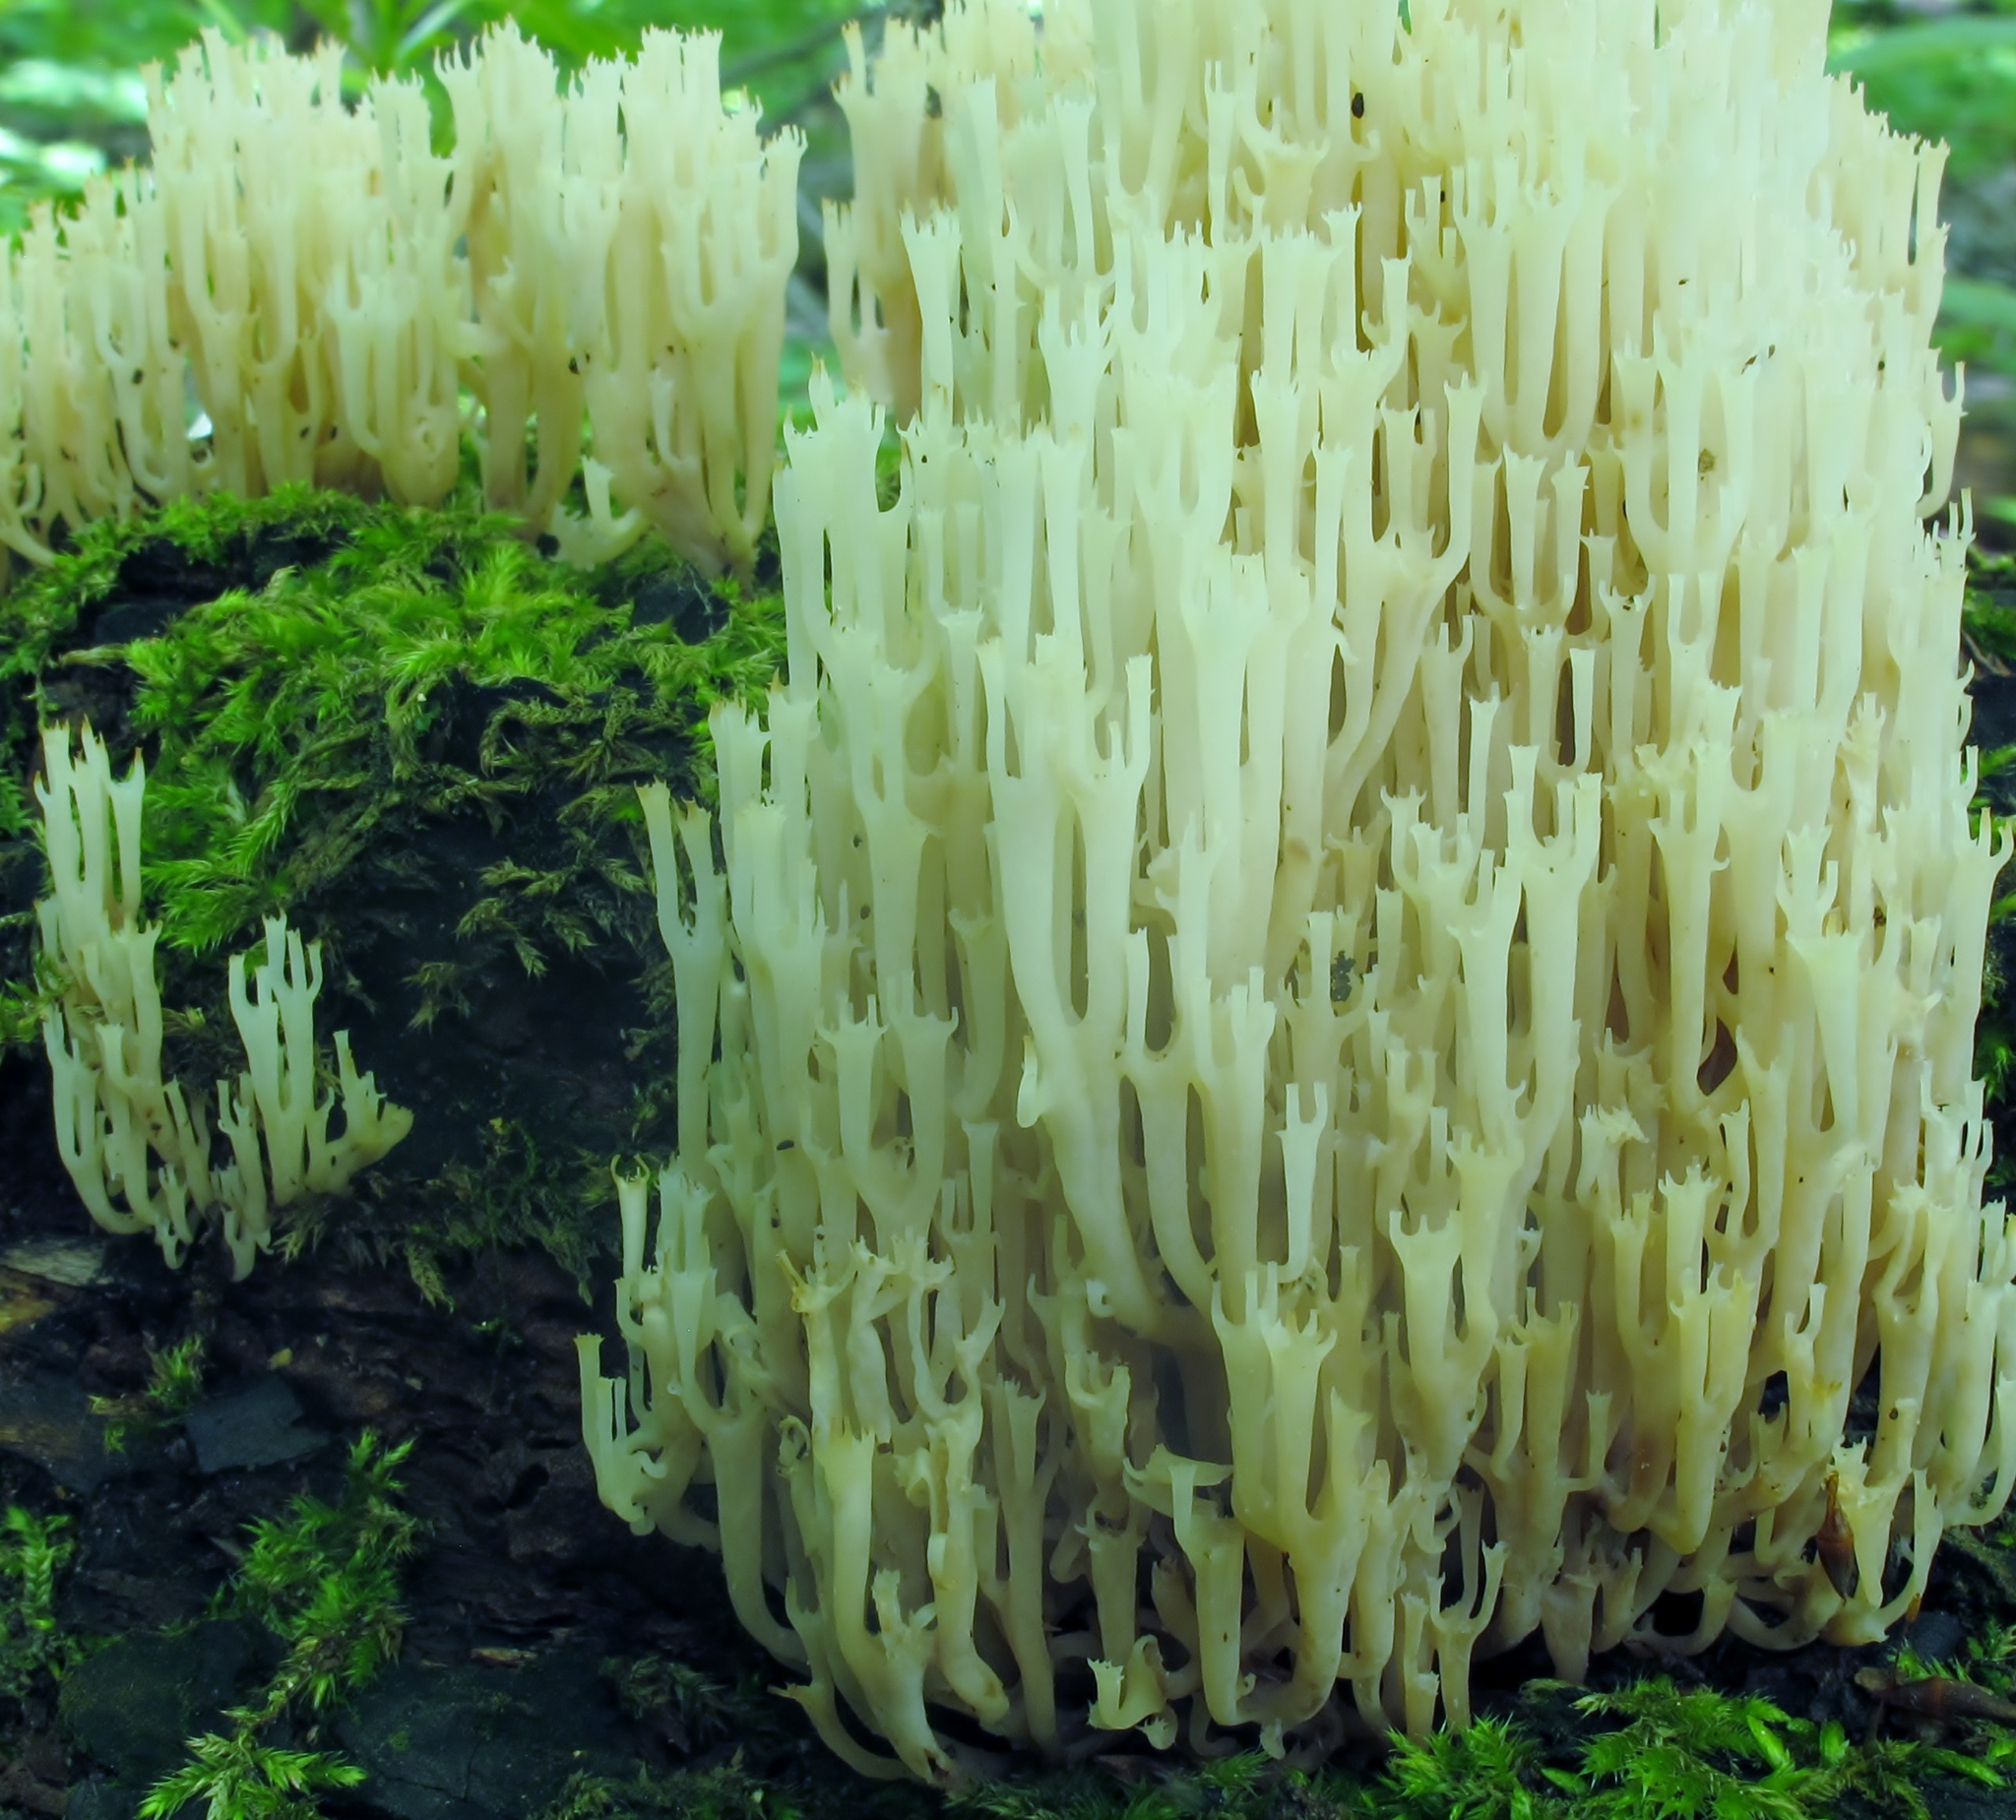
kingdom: Fungi
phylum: Basidiomycota
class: Agaricomycetes
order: Russulales
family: Auriscalpiaceae
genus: Artomyces
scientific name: Artomyces pyxidatus
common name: Crown-tipped coral fungus
